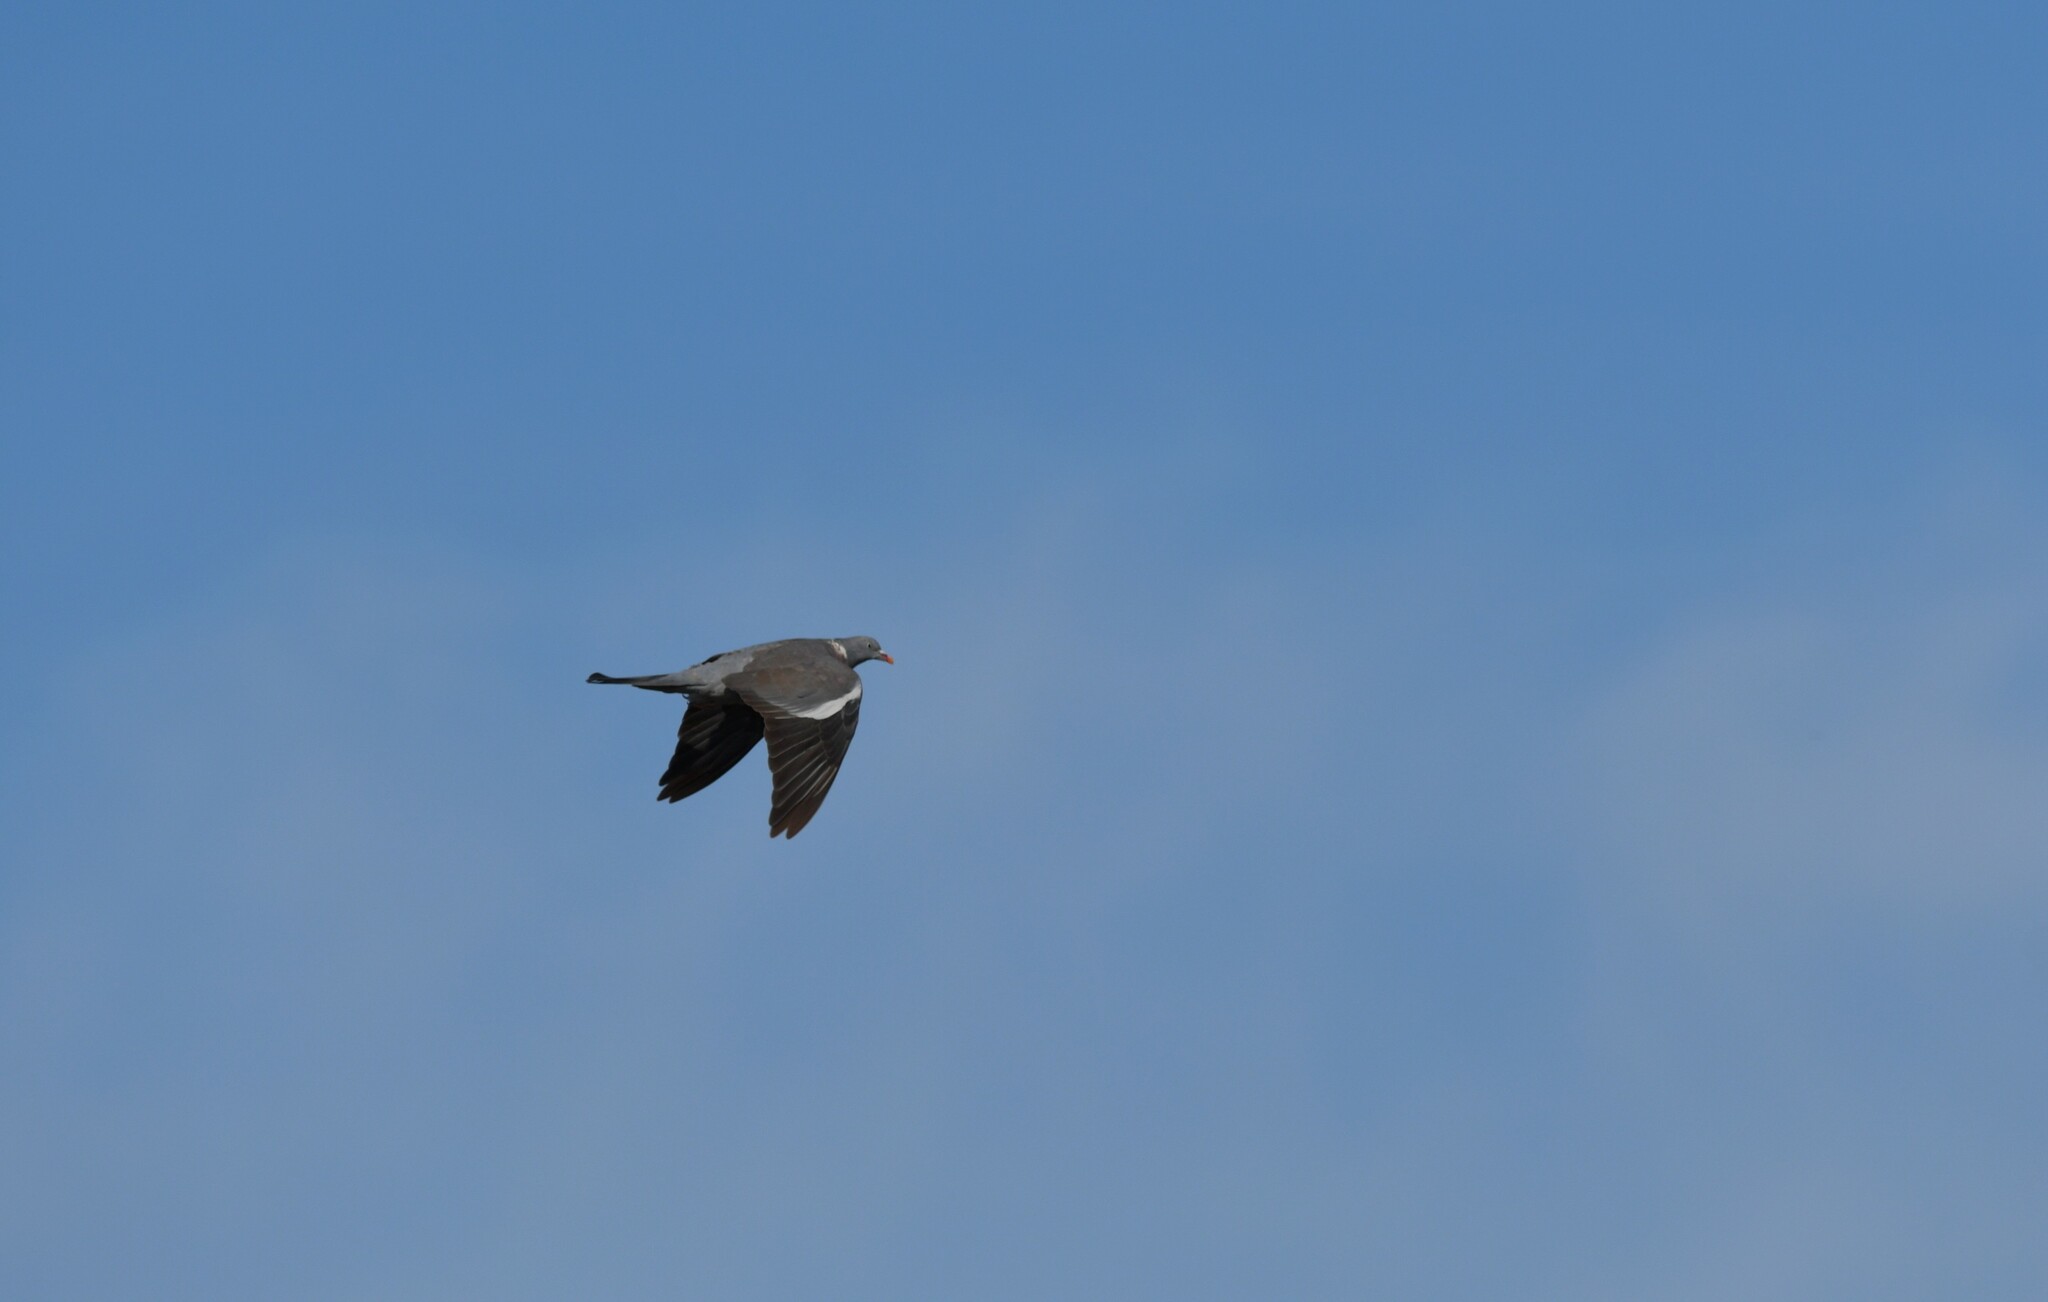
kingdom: Animalia
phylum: Chordata
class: Aves
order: Columbiformes
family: Columbidae
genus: Columba
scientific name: Columba palumbus
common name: Common wood pigeon
